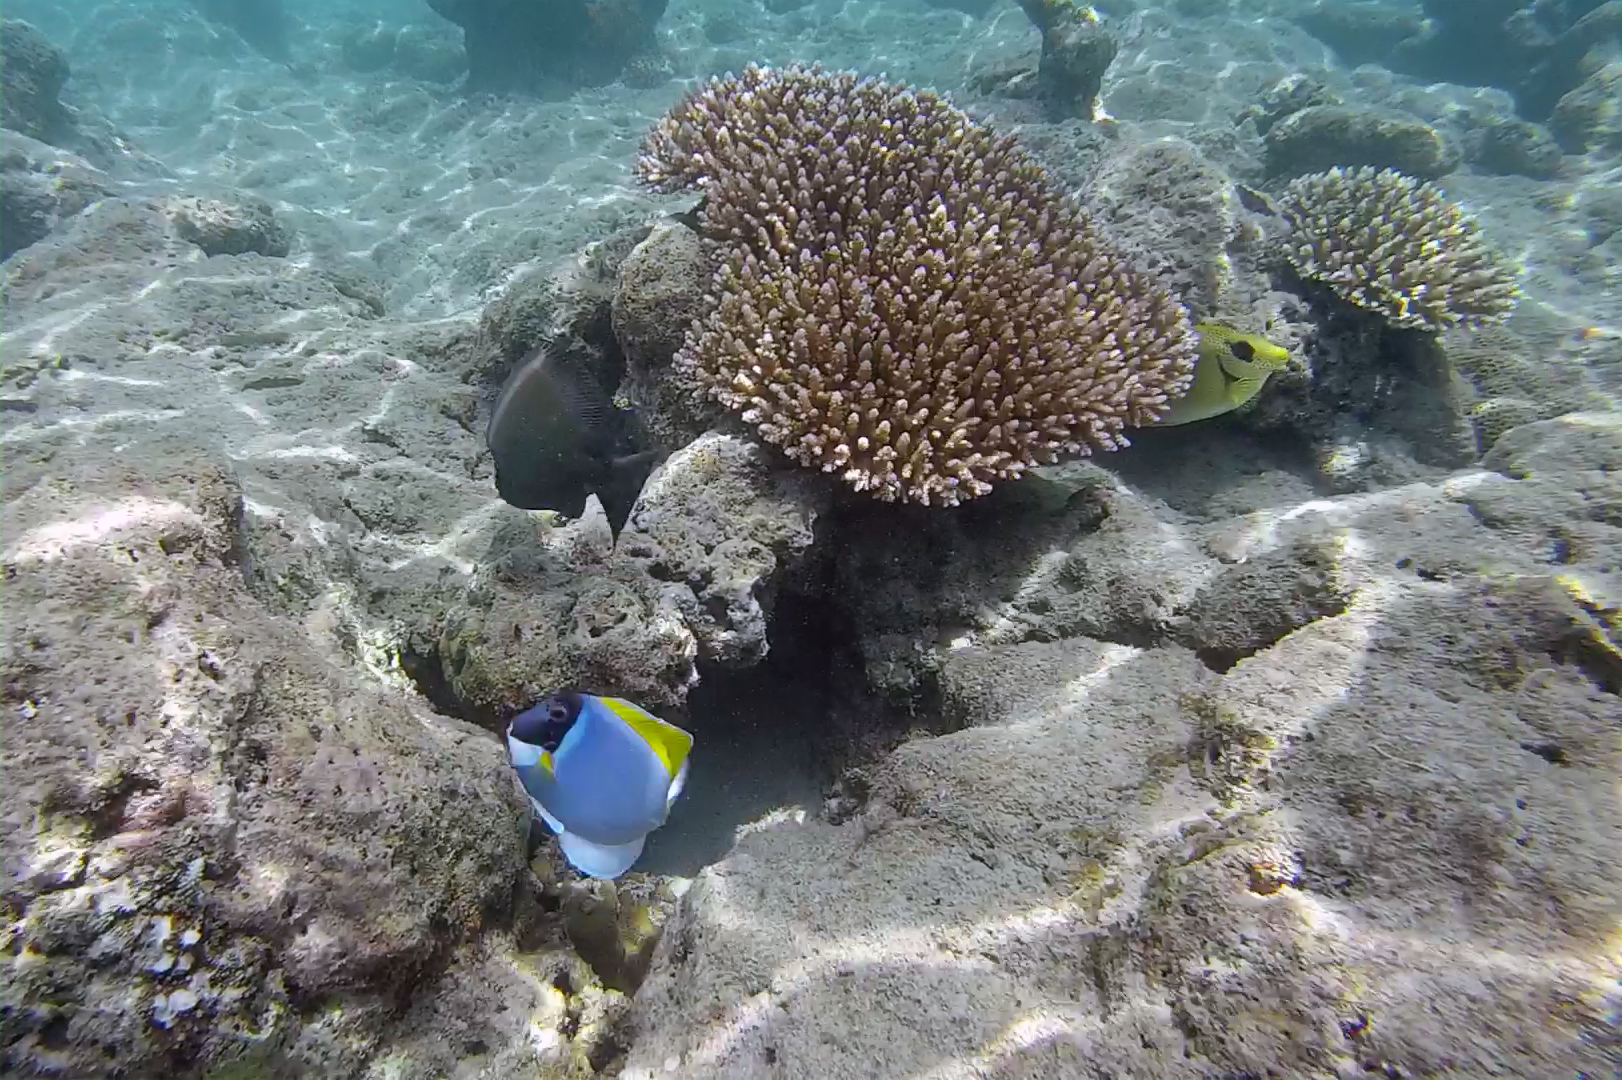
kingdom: Animalia
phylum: Chordata
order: Perciformes
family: Siganidae
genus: Siganus
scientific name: Siganus corallinus
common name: Coral rabbitfish
